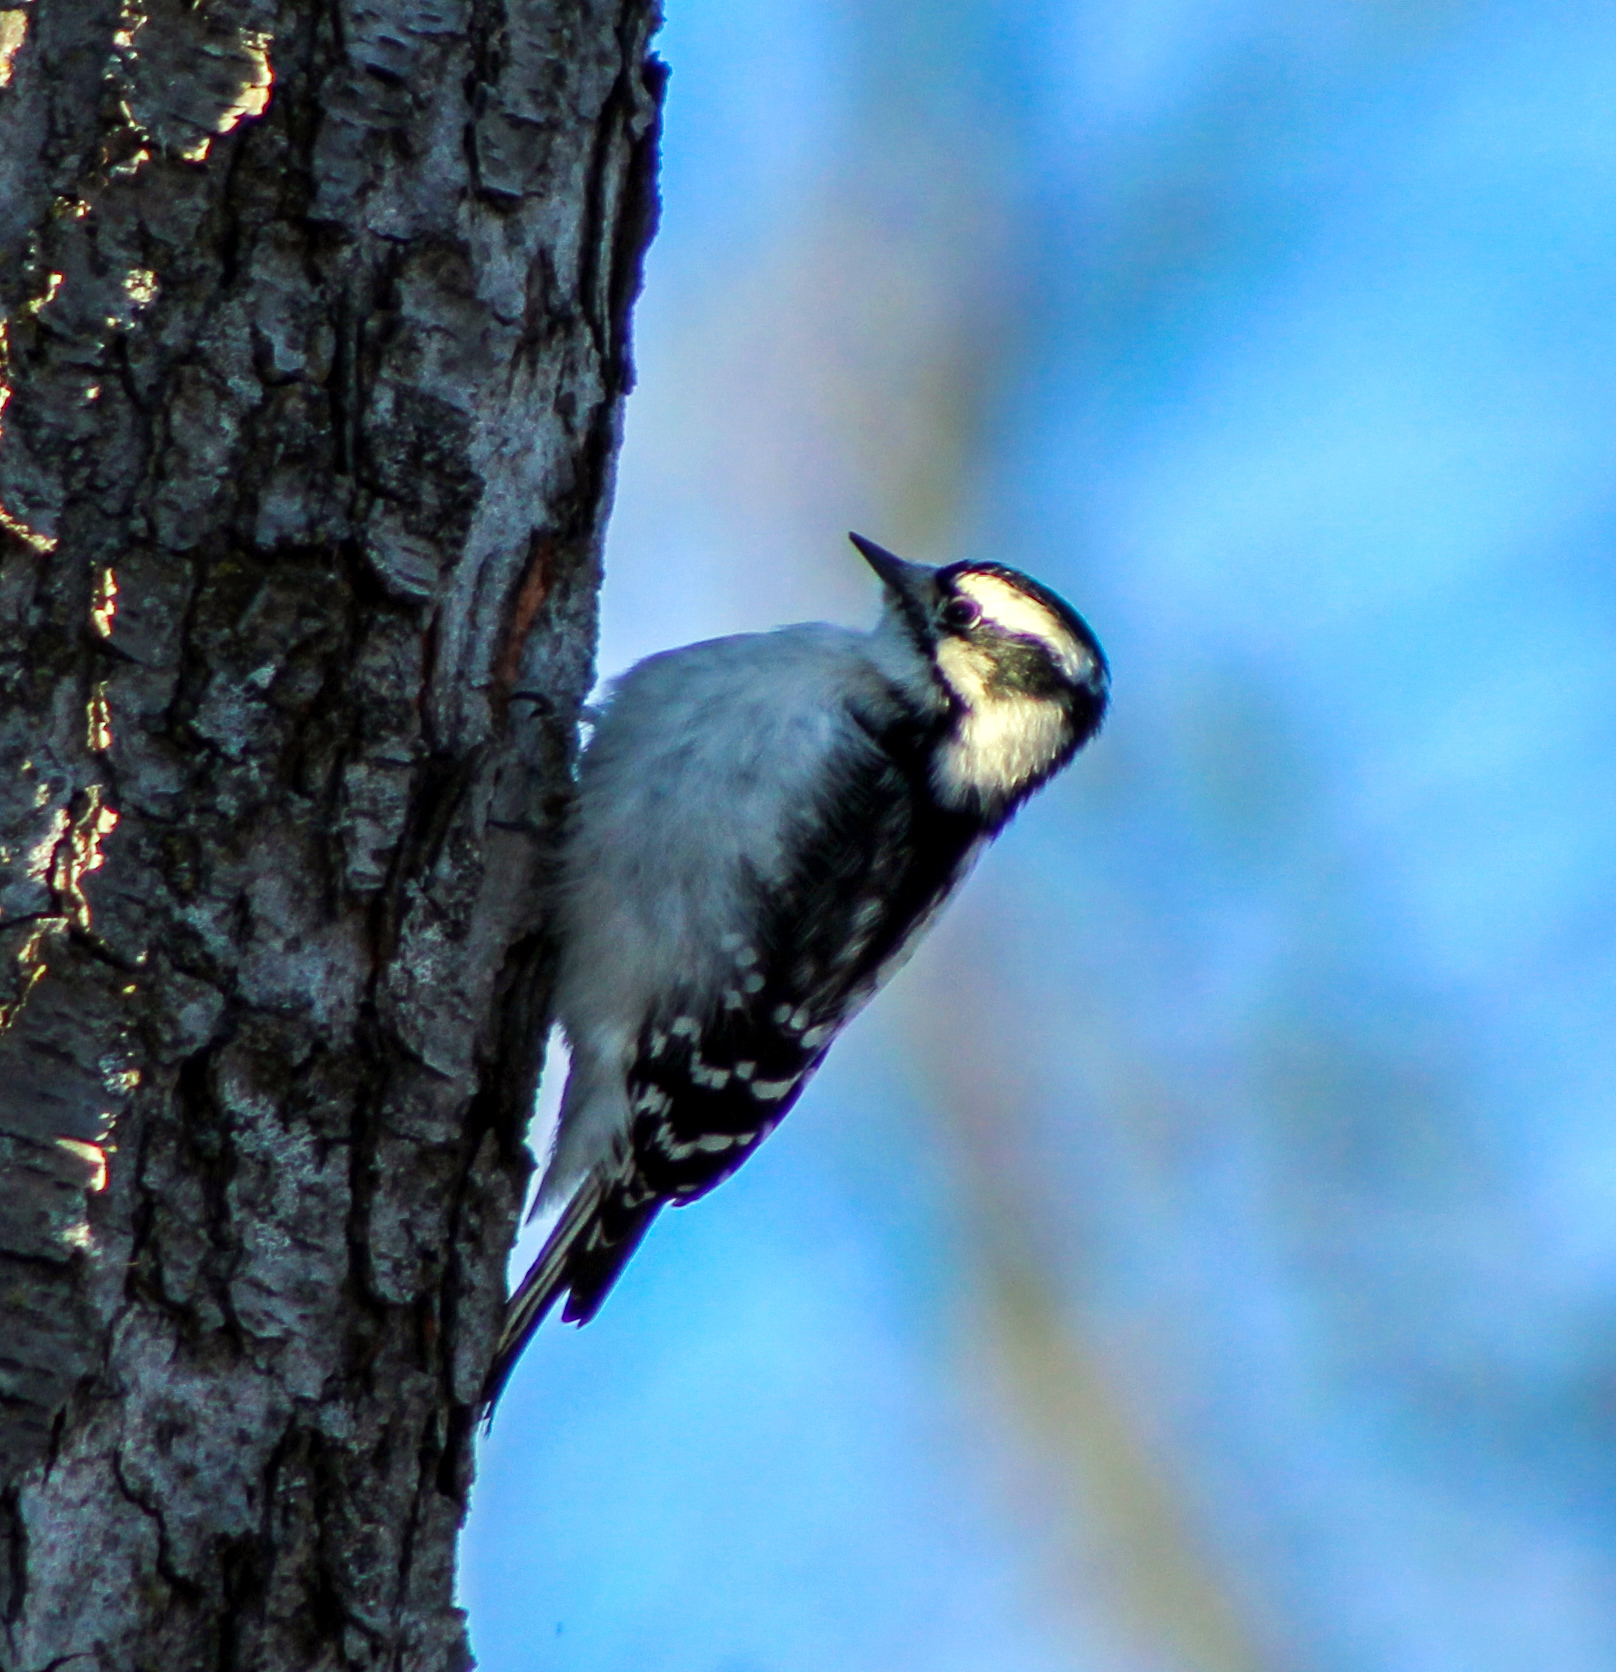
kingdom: Animalia
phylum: Chordata
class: Aves
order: Piciformes
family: Picidae
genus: Dryobates
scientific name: Dryobates pubescens
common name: Downy woodpecker
